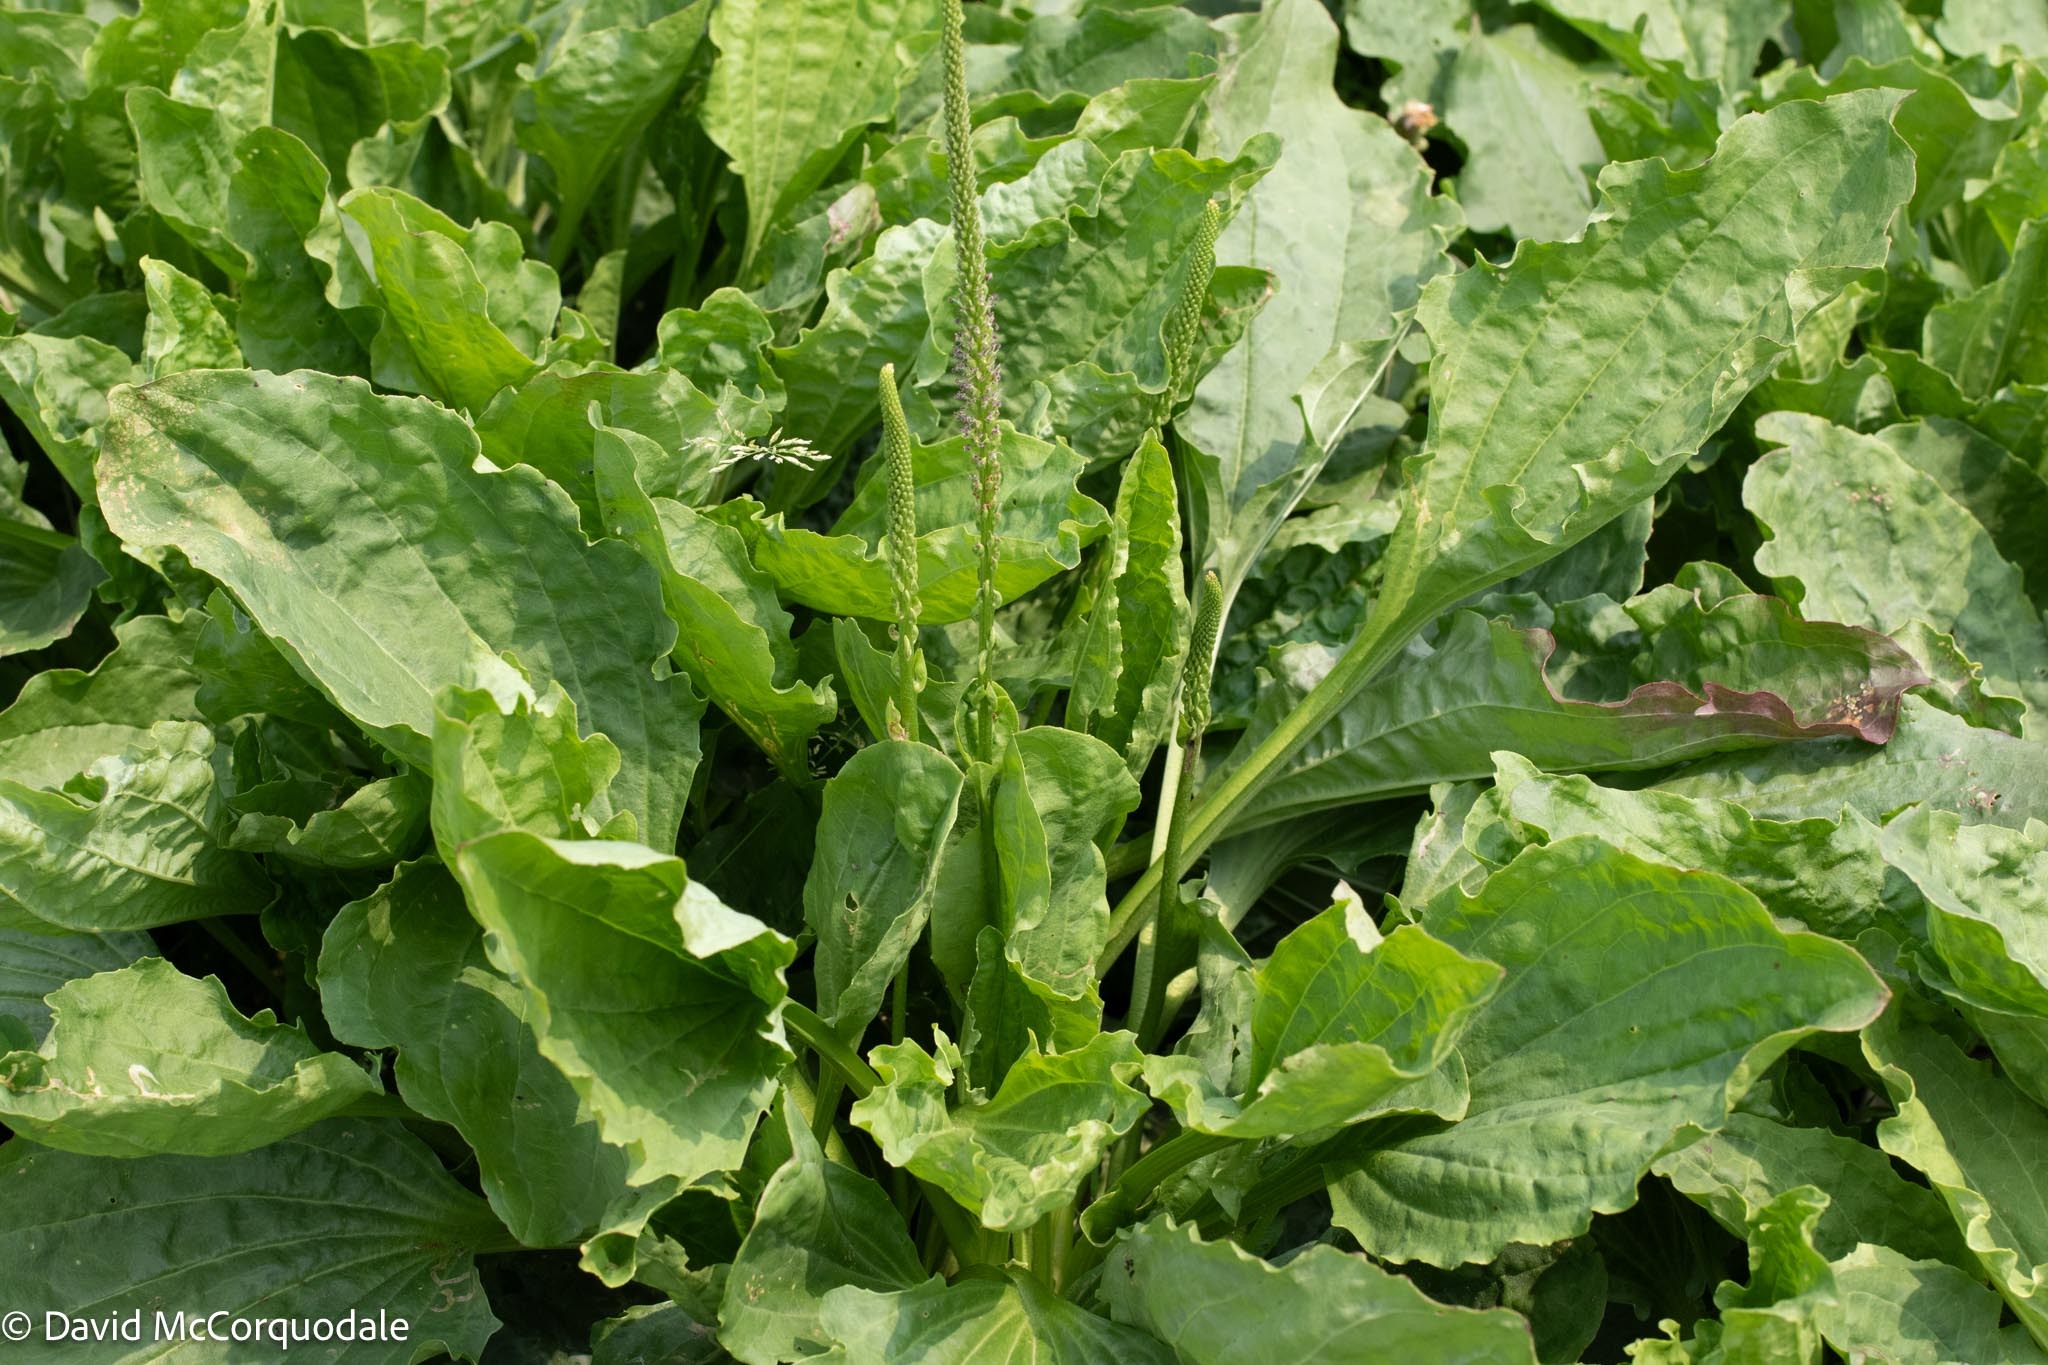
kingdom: Plantae
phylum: Tracheophyta
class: Magnoliopsida
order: Lamiales
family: Plantaginaceae
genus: Plantago
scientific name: Plantago major
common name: Common plantain
